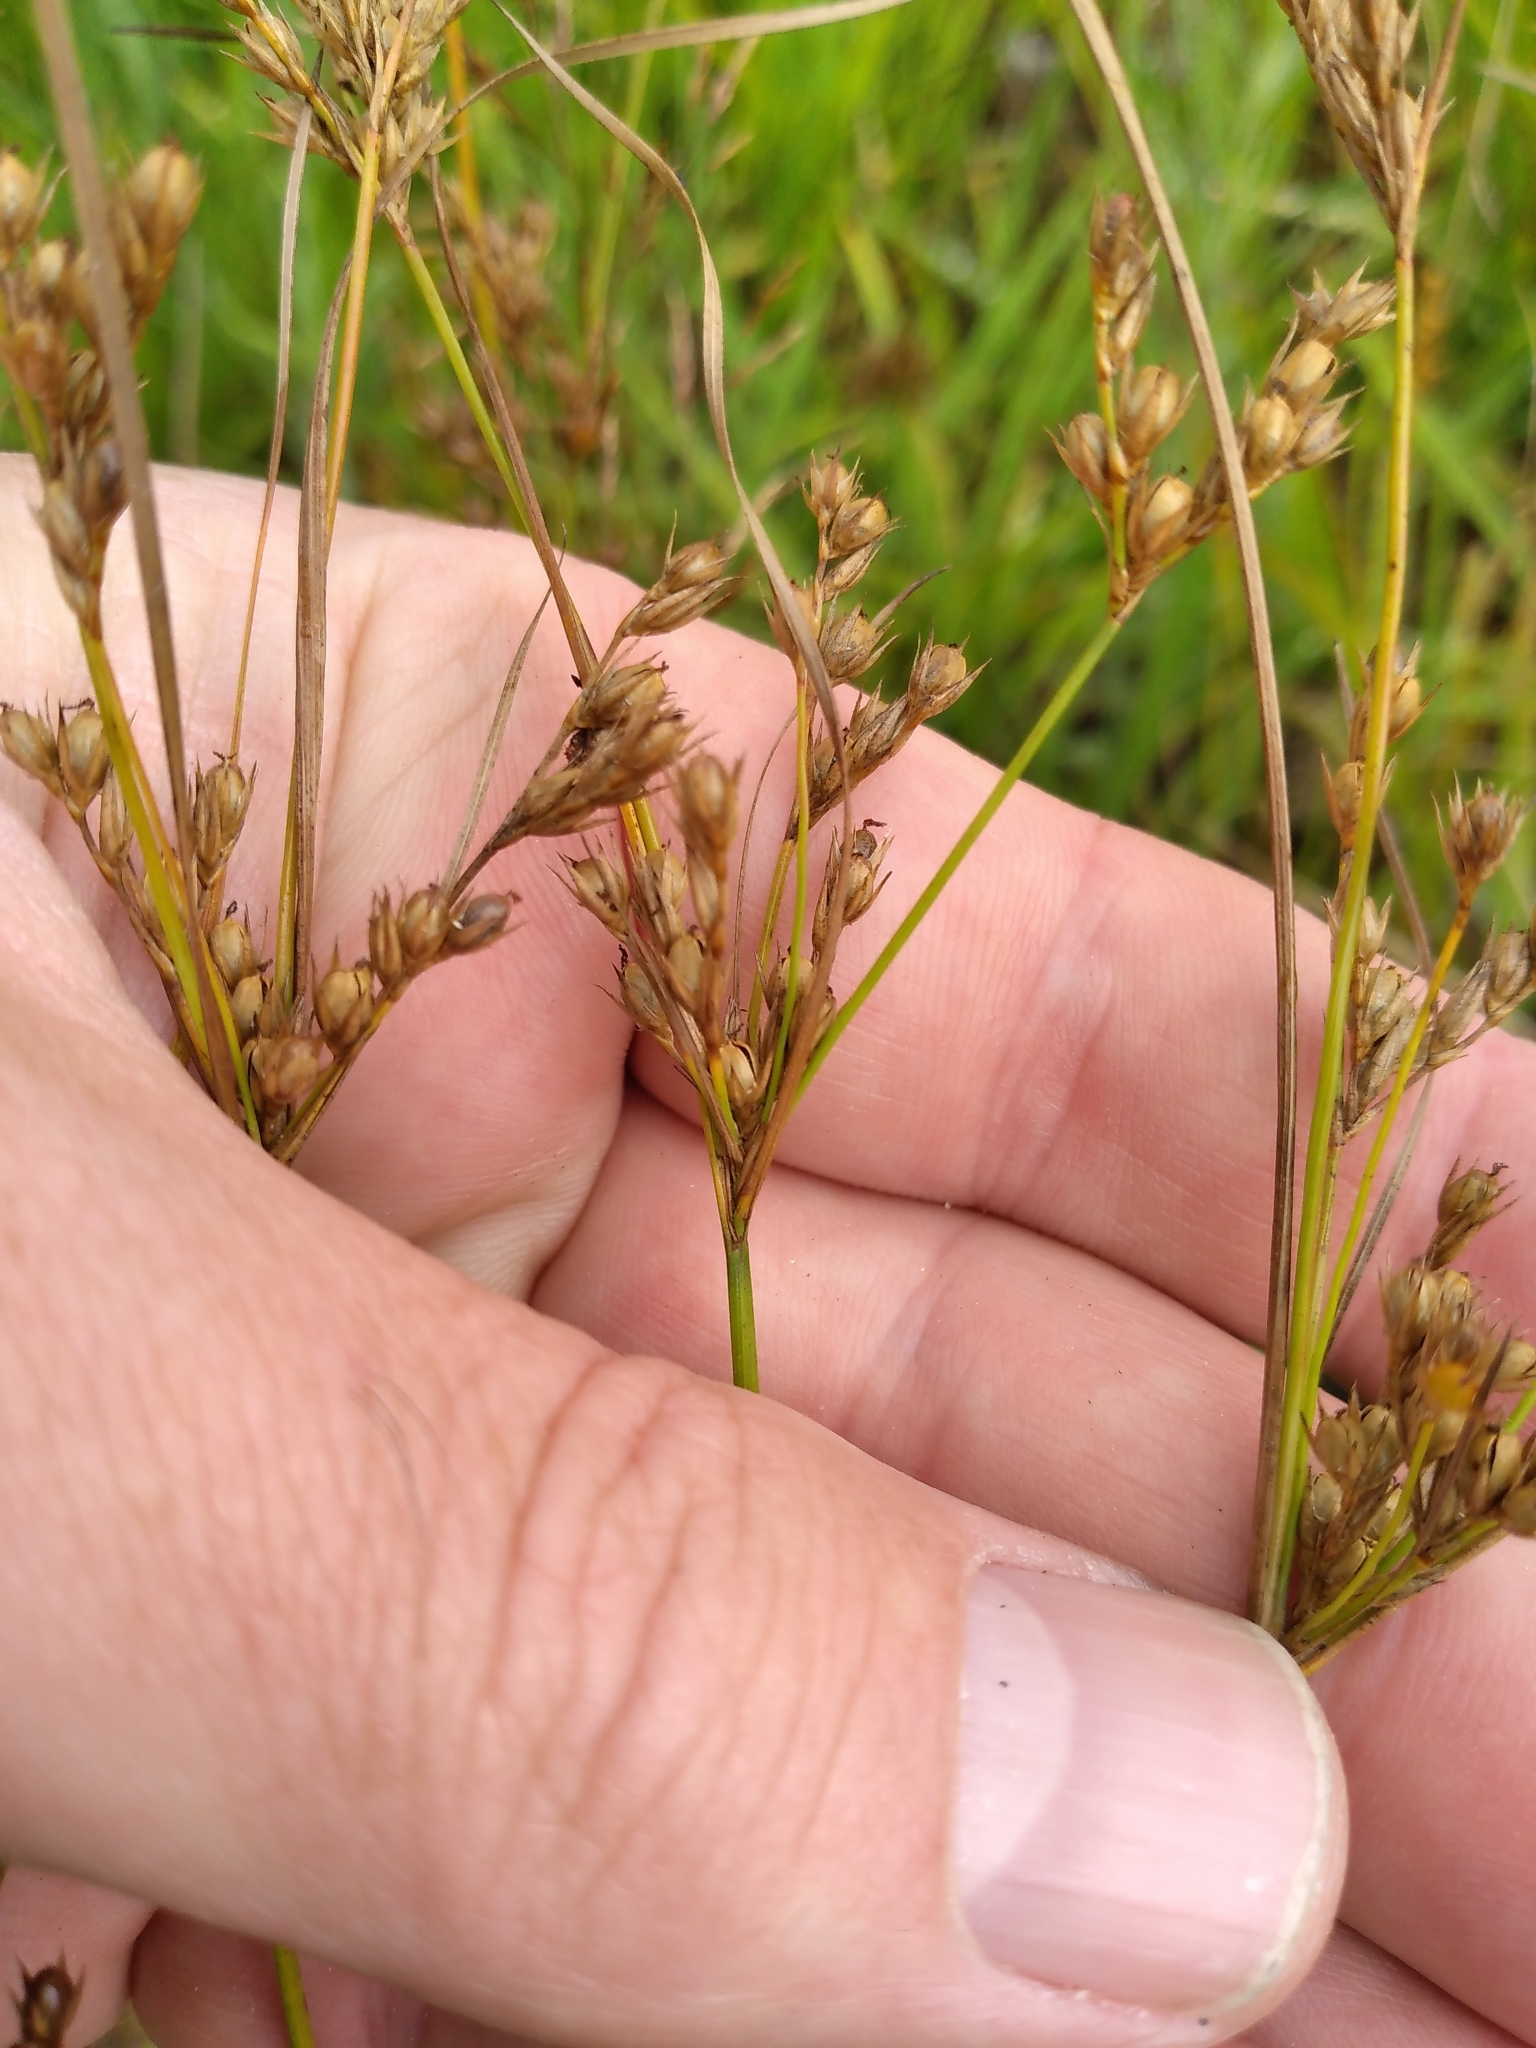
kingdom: Plantae
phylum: Tracheophyta
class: Liliopsida
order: Poales
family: Juncaceae
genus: Juncus
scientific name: Juncus tenuis
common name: Slender rush
